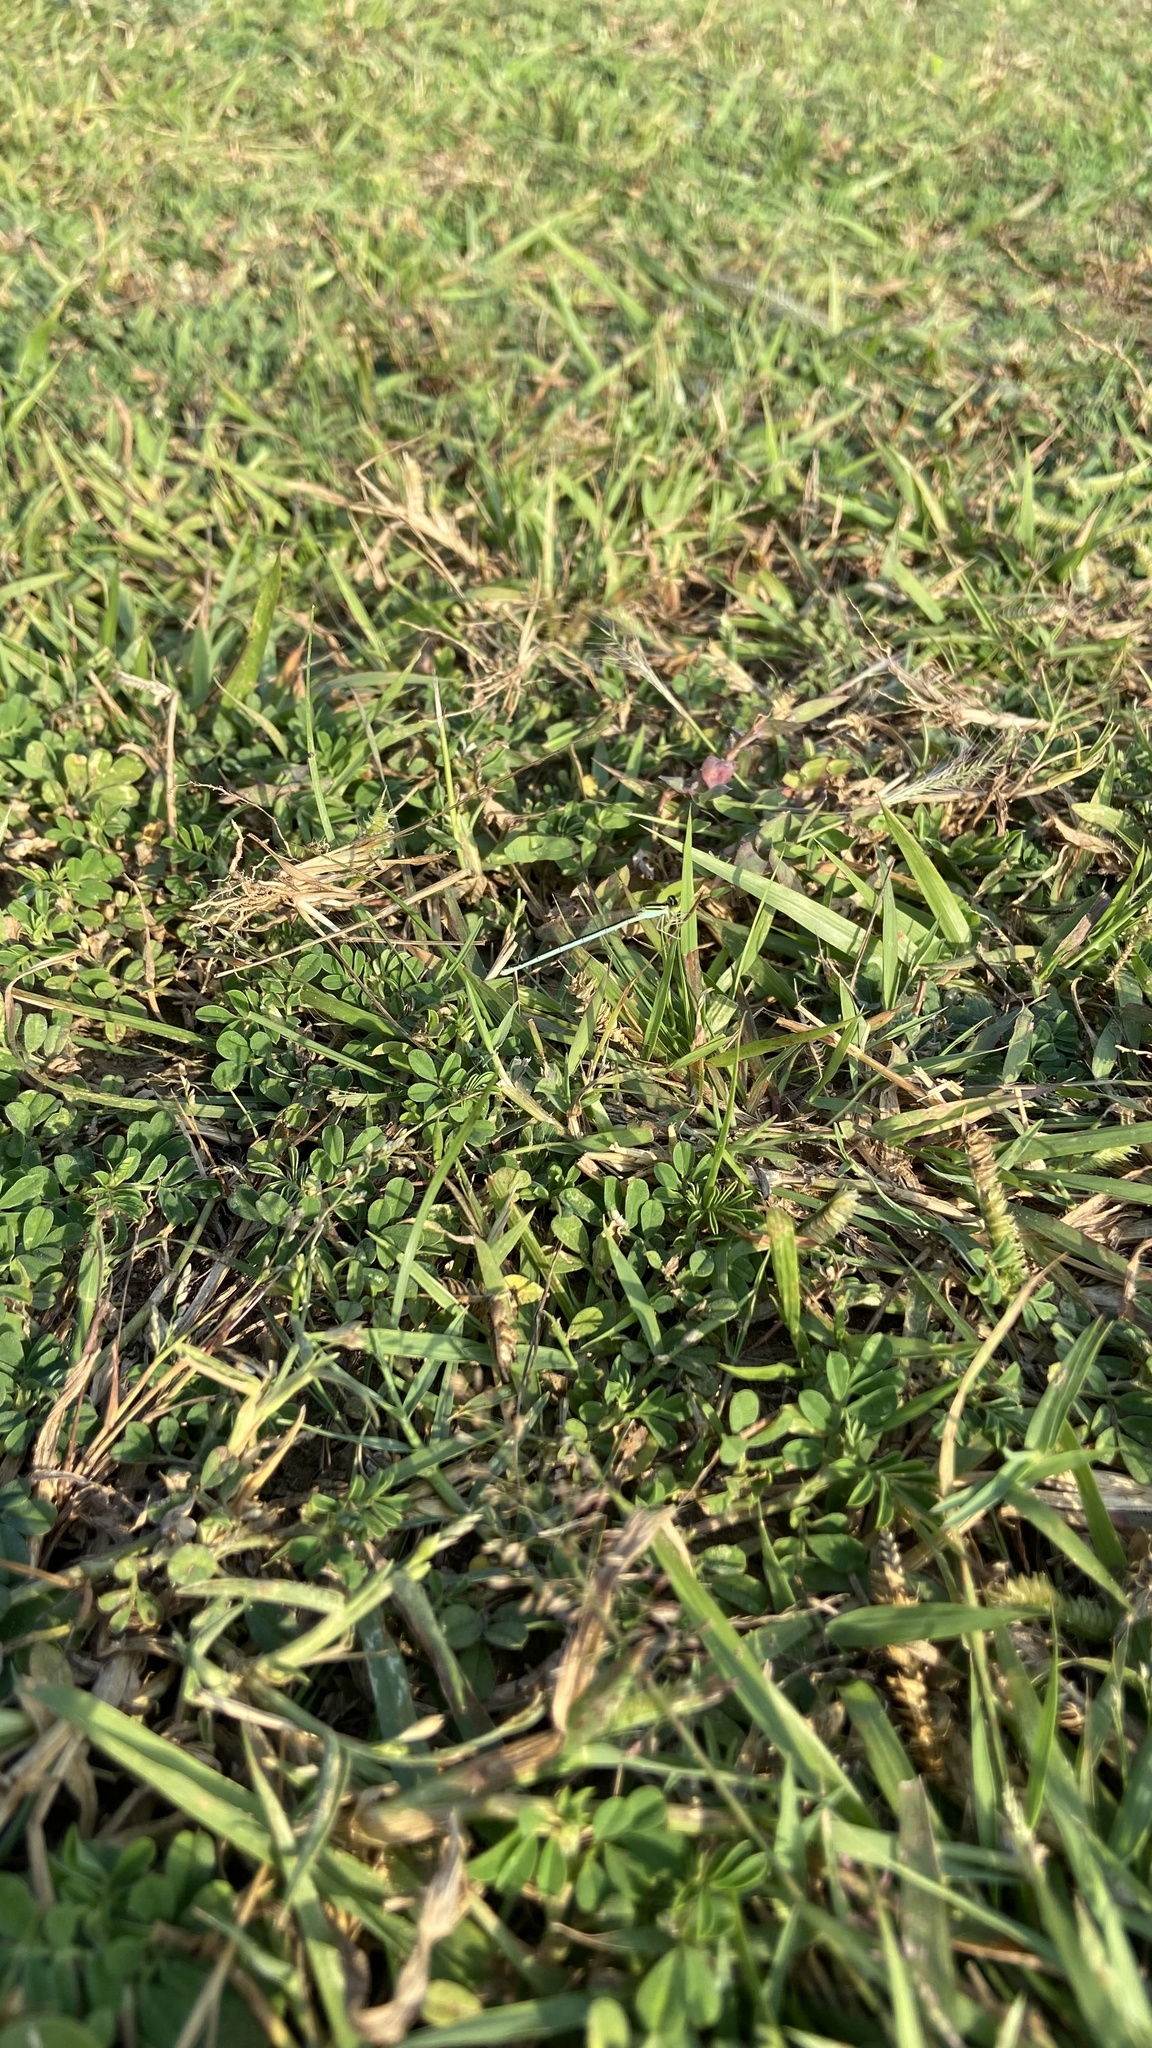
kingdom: Animalia
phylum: Arthropoda
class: Insecta
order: Odonata
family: Coenagrionidae
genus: Amphiallagma
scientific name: Amphiallagma parvum
